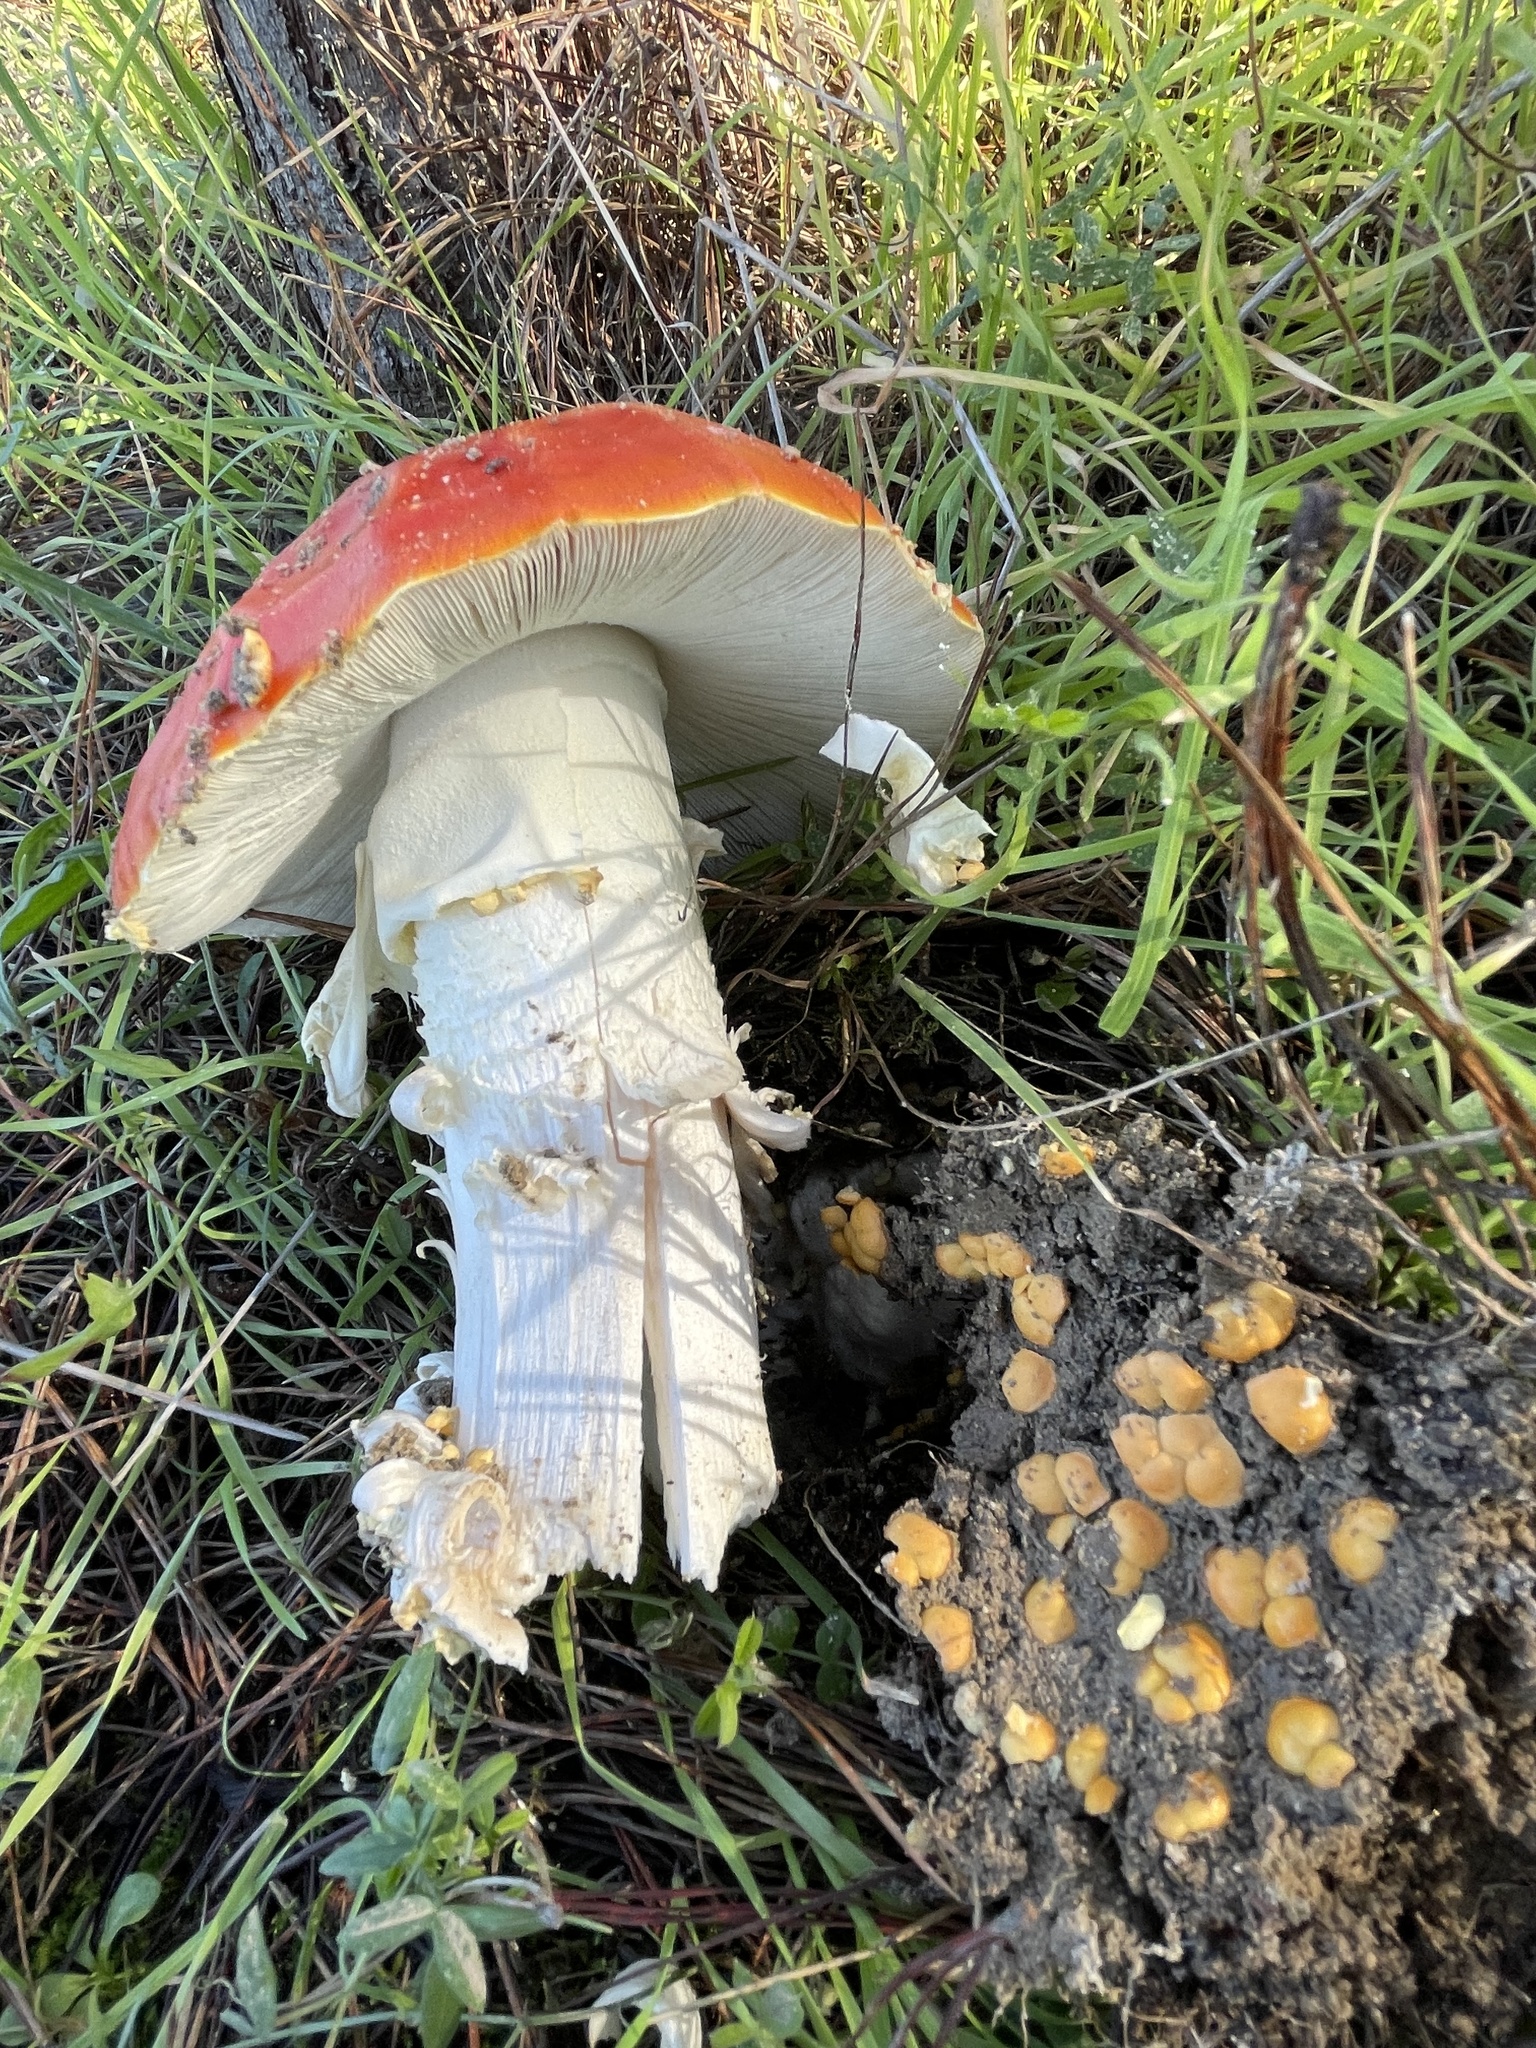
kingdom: Fungi
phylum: Basidiomycota
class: Agaricomycetes
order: Agaricales
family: Amanitaceae
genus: Amanita
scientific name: Amanita muscaria
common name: Fly agaric
